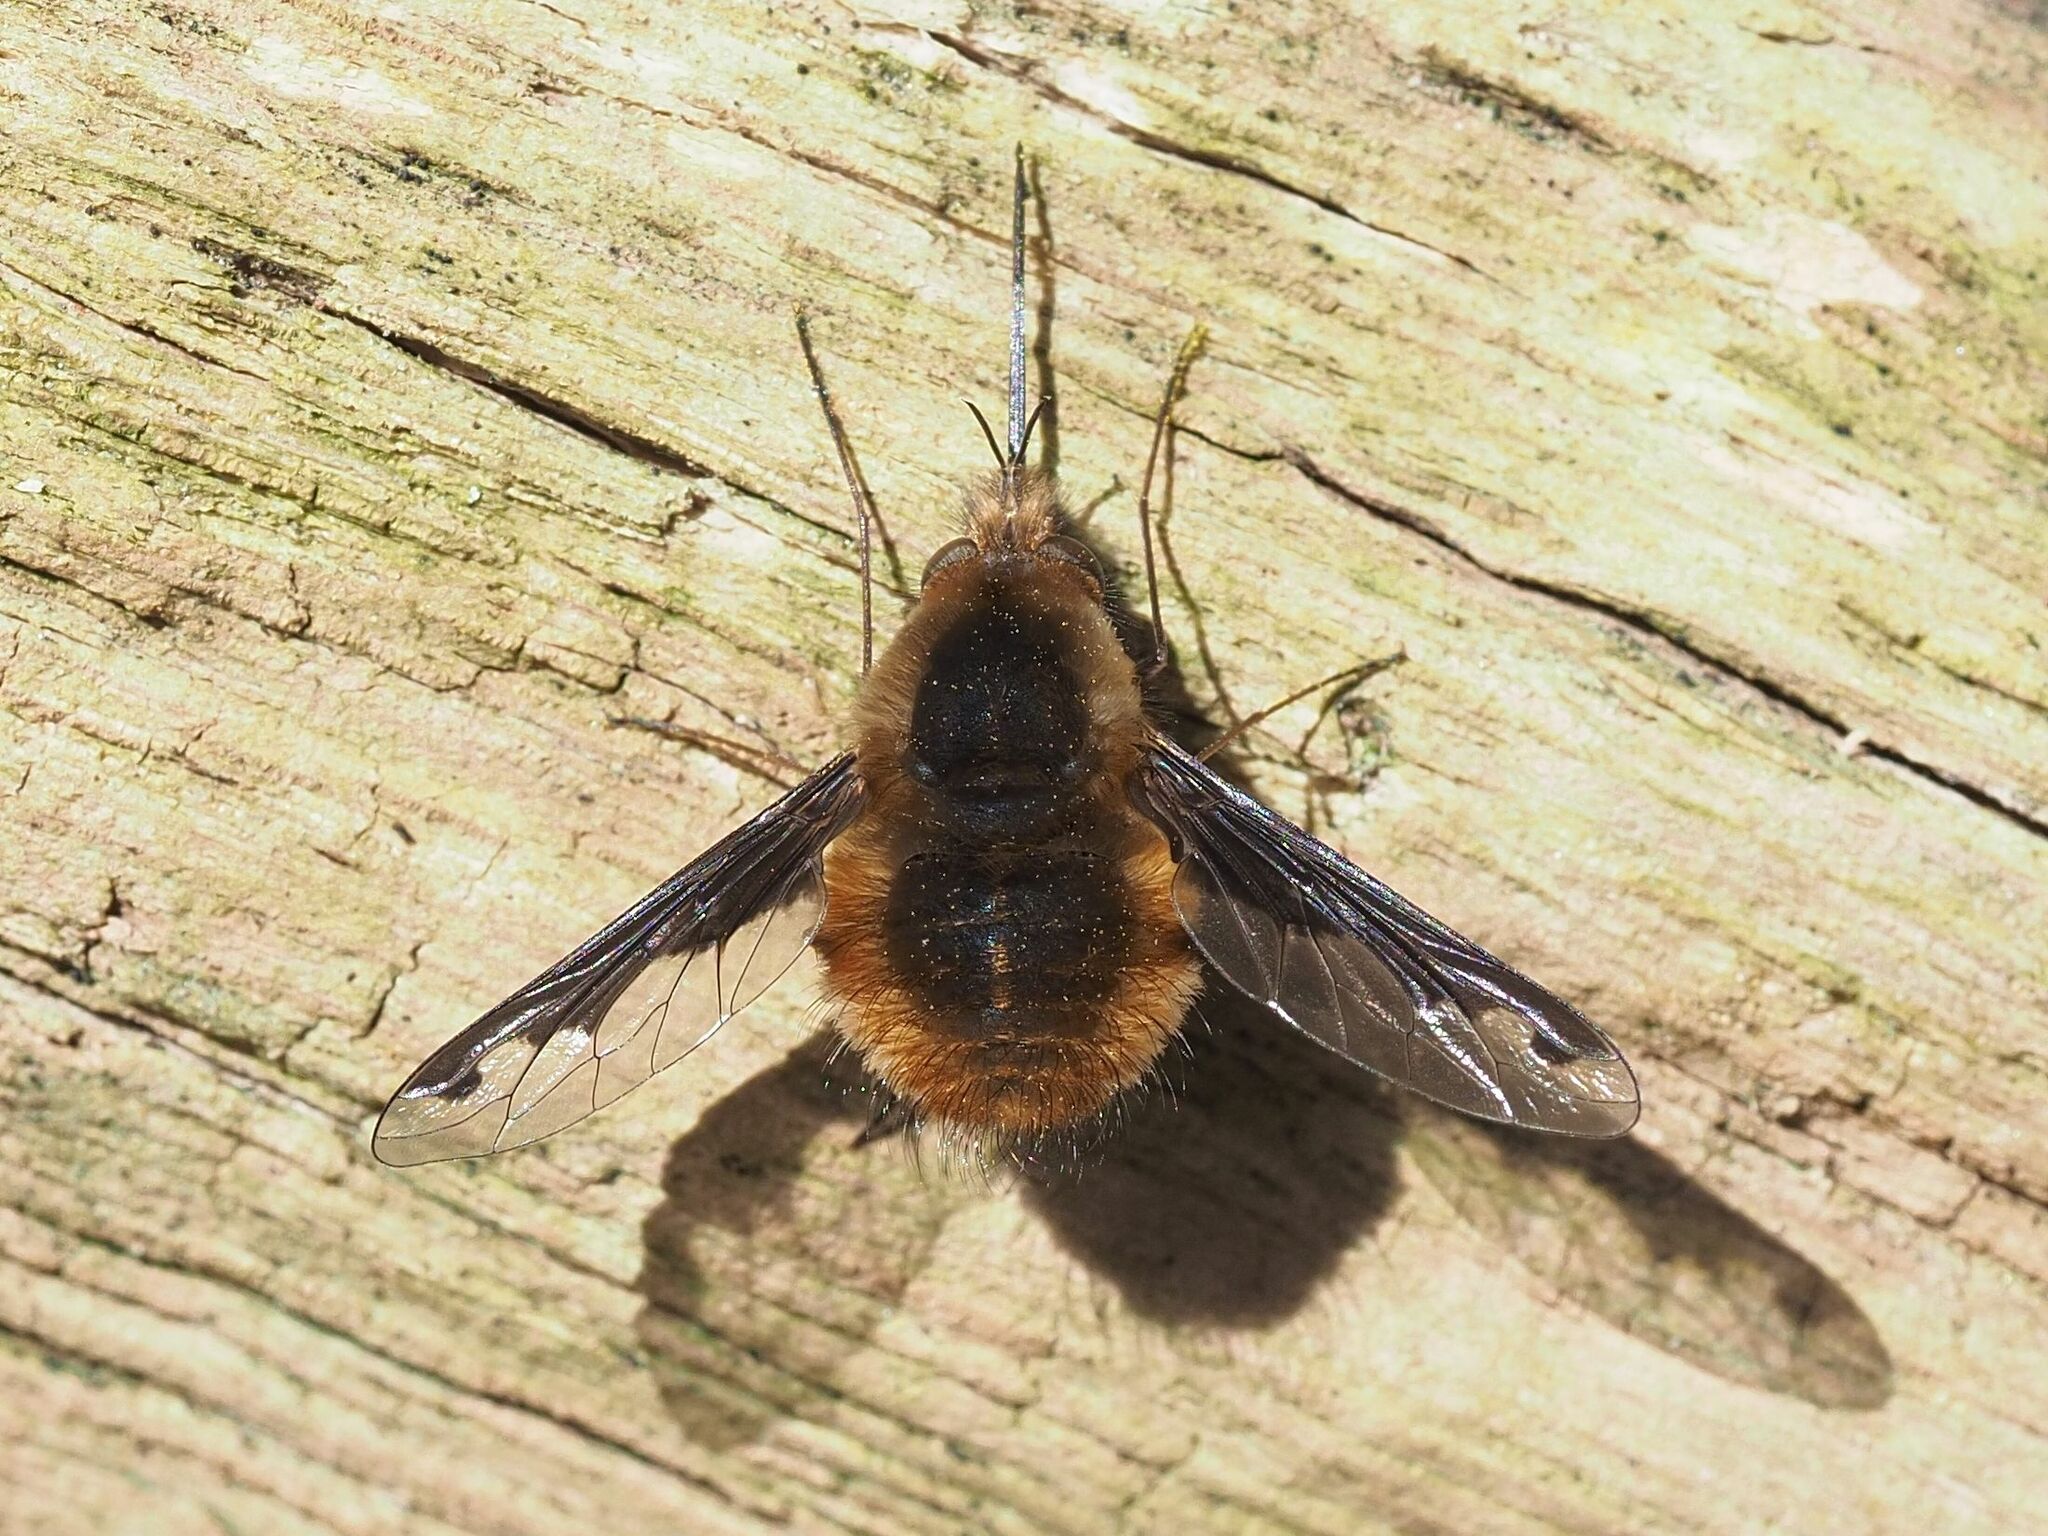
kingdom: Animalia
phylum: Arthropoda
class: Insecta
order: Diptera
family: Bombyliidae
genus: Bombylius
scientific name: Bombylius major
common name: Bee fly
